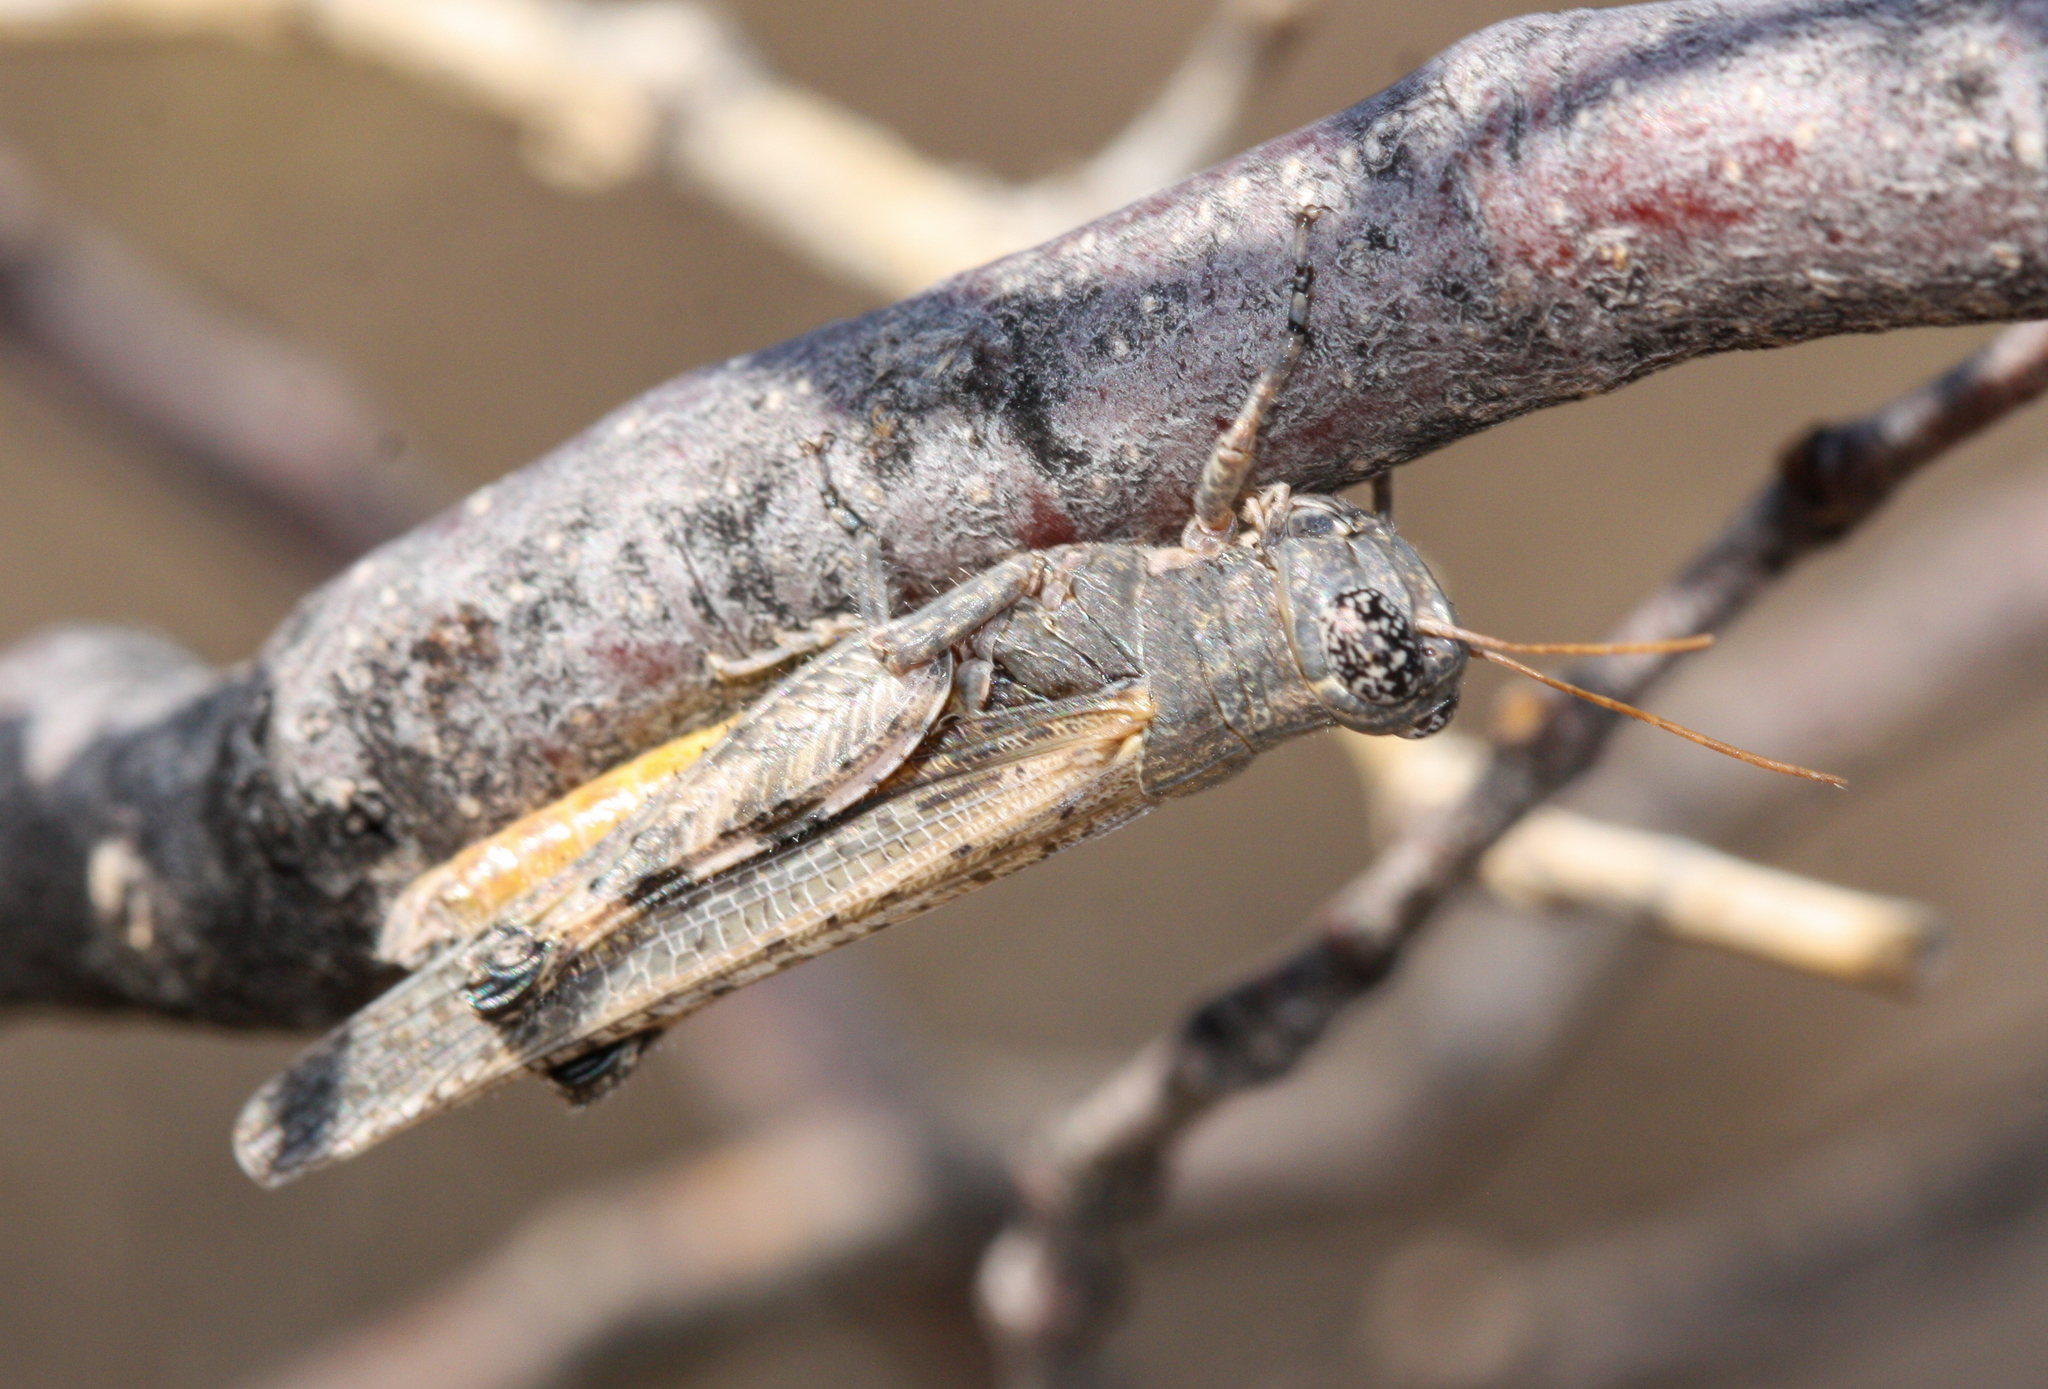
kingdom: Animalia
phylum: Arthropoda
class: Insecta
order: Orthoptera
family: Acrididae
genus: Ligurotettix
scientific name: Ligurotettix coquilletti
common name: Desert clicker grasshopper
